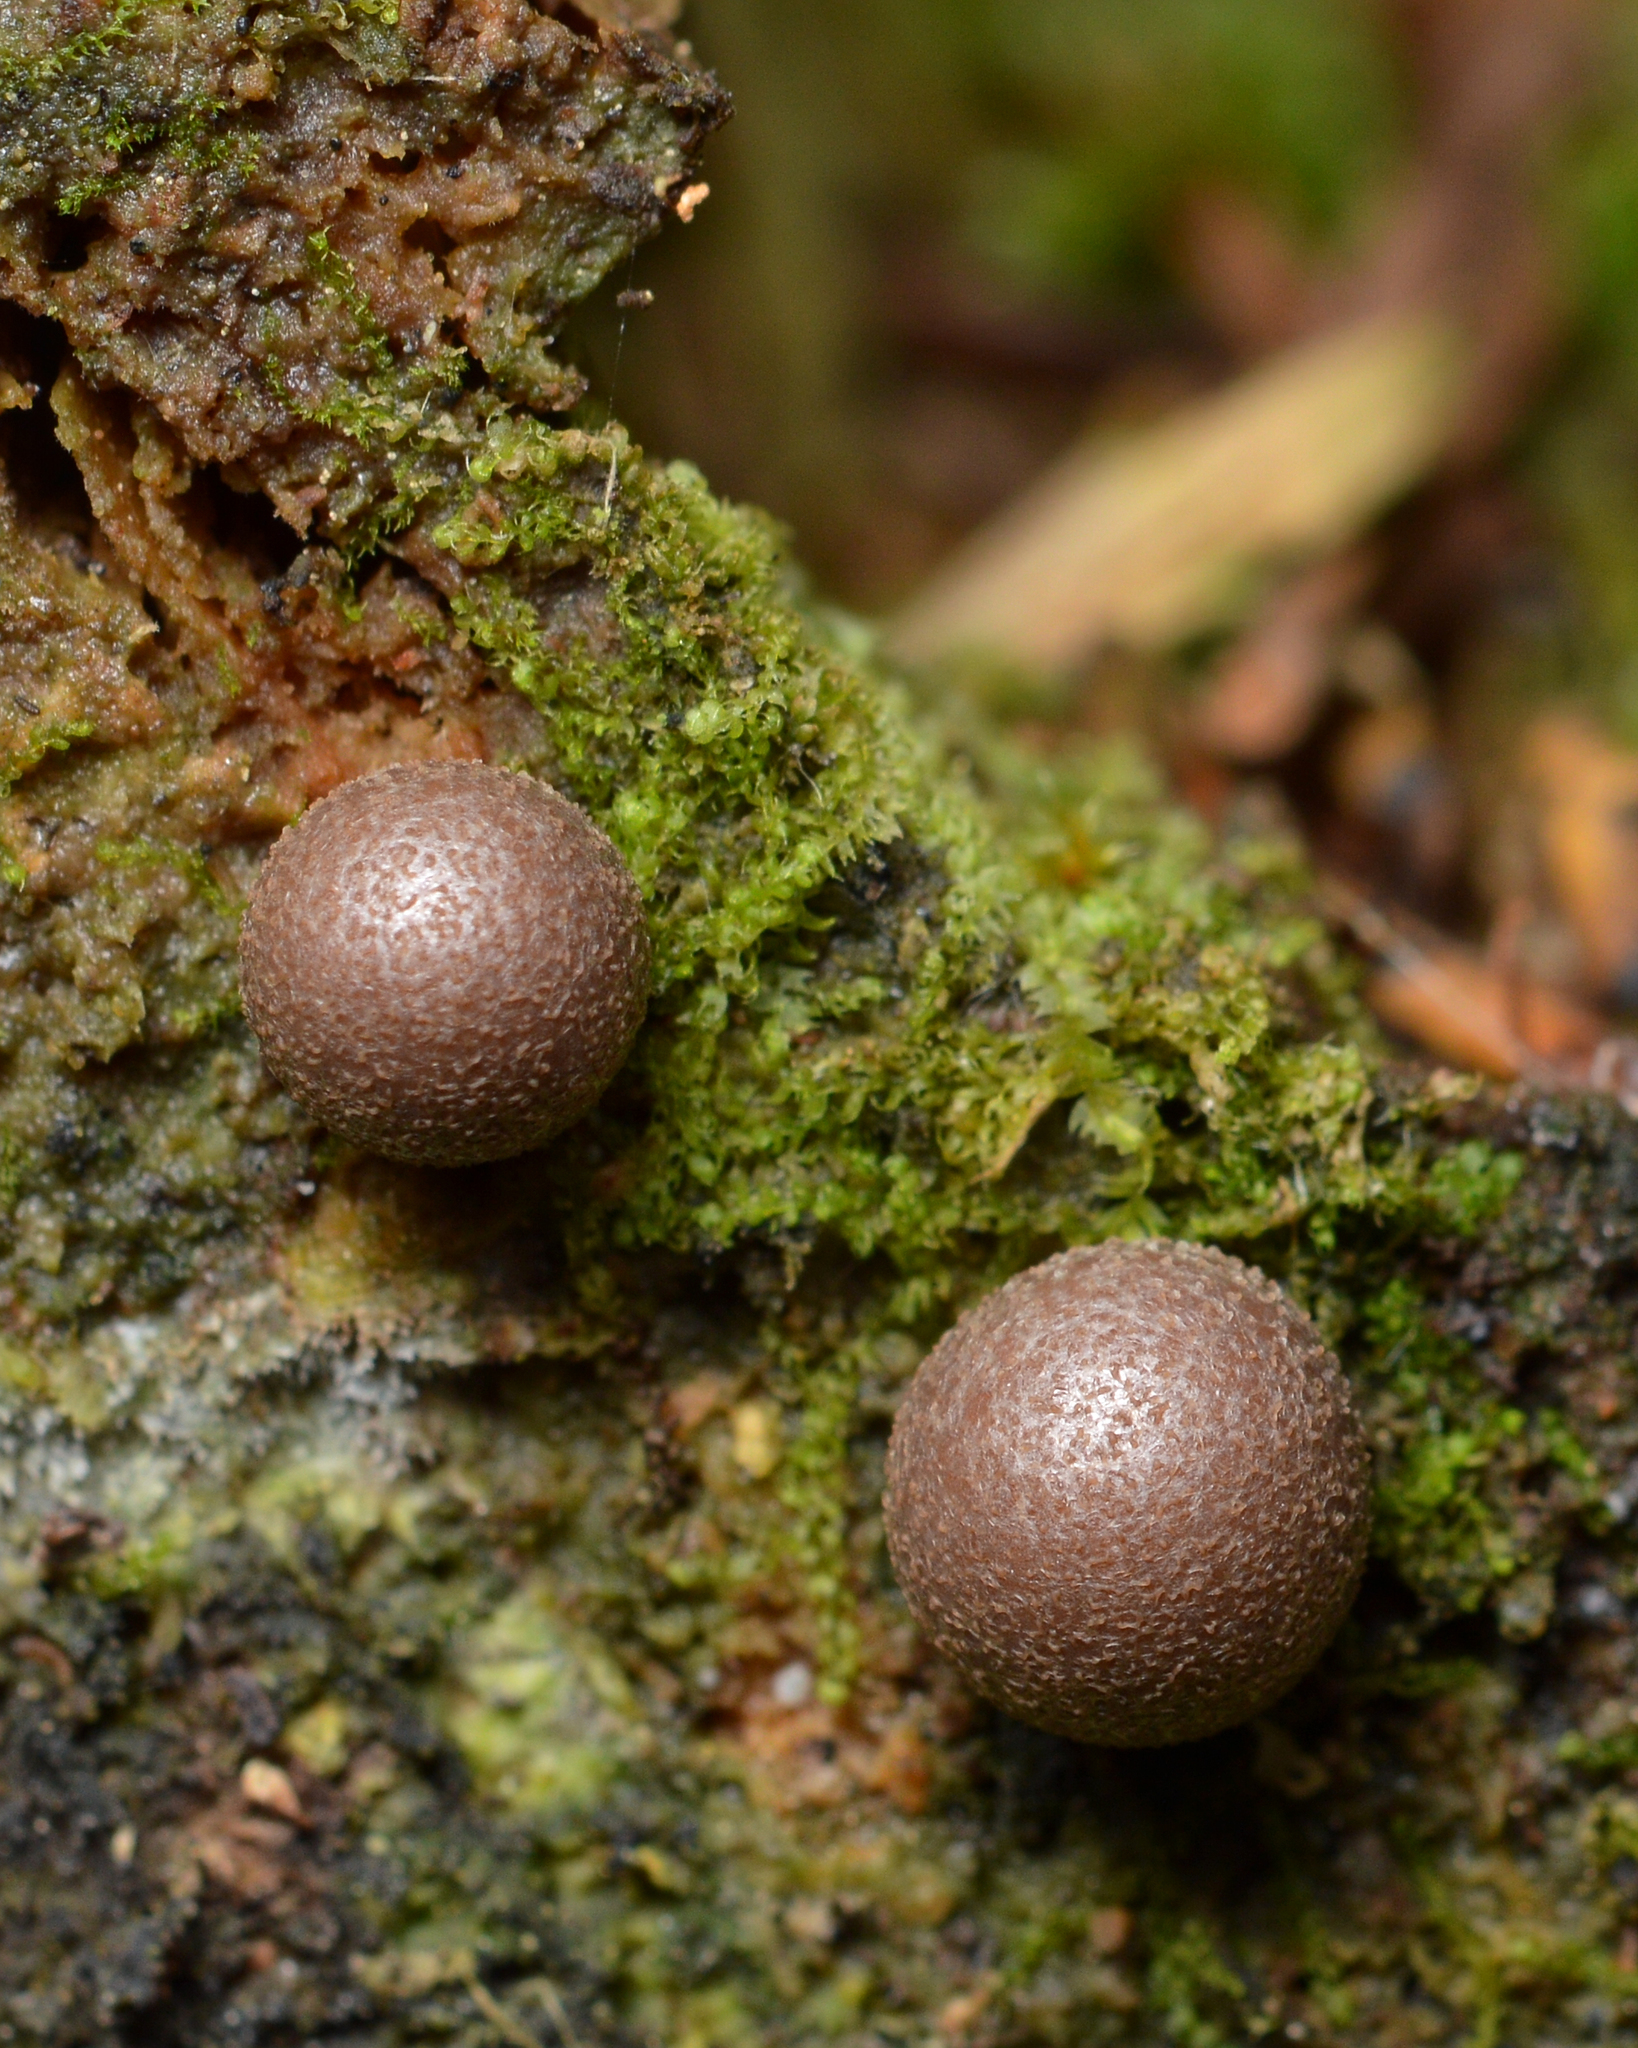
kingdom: Protozoa
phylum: Mycetozoa
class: Myxomycetes
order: Cribrariales
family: Tubiferaceae
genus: Lycogala
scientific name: Lycogala epidendrum
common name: Wolf's milk
